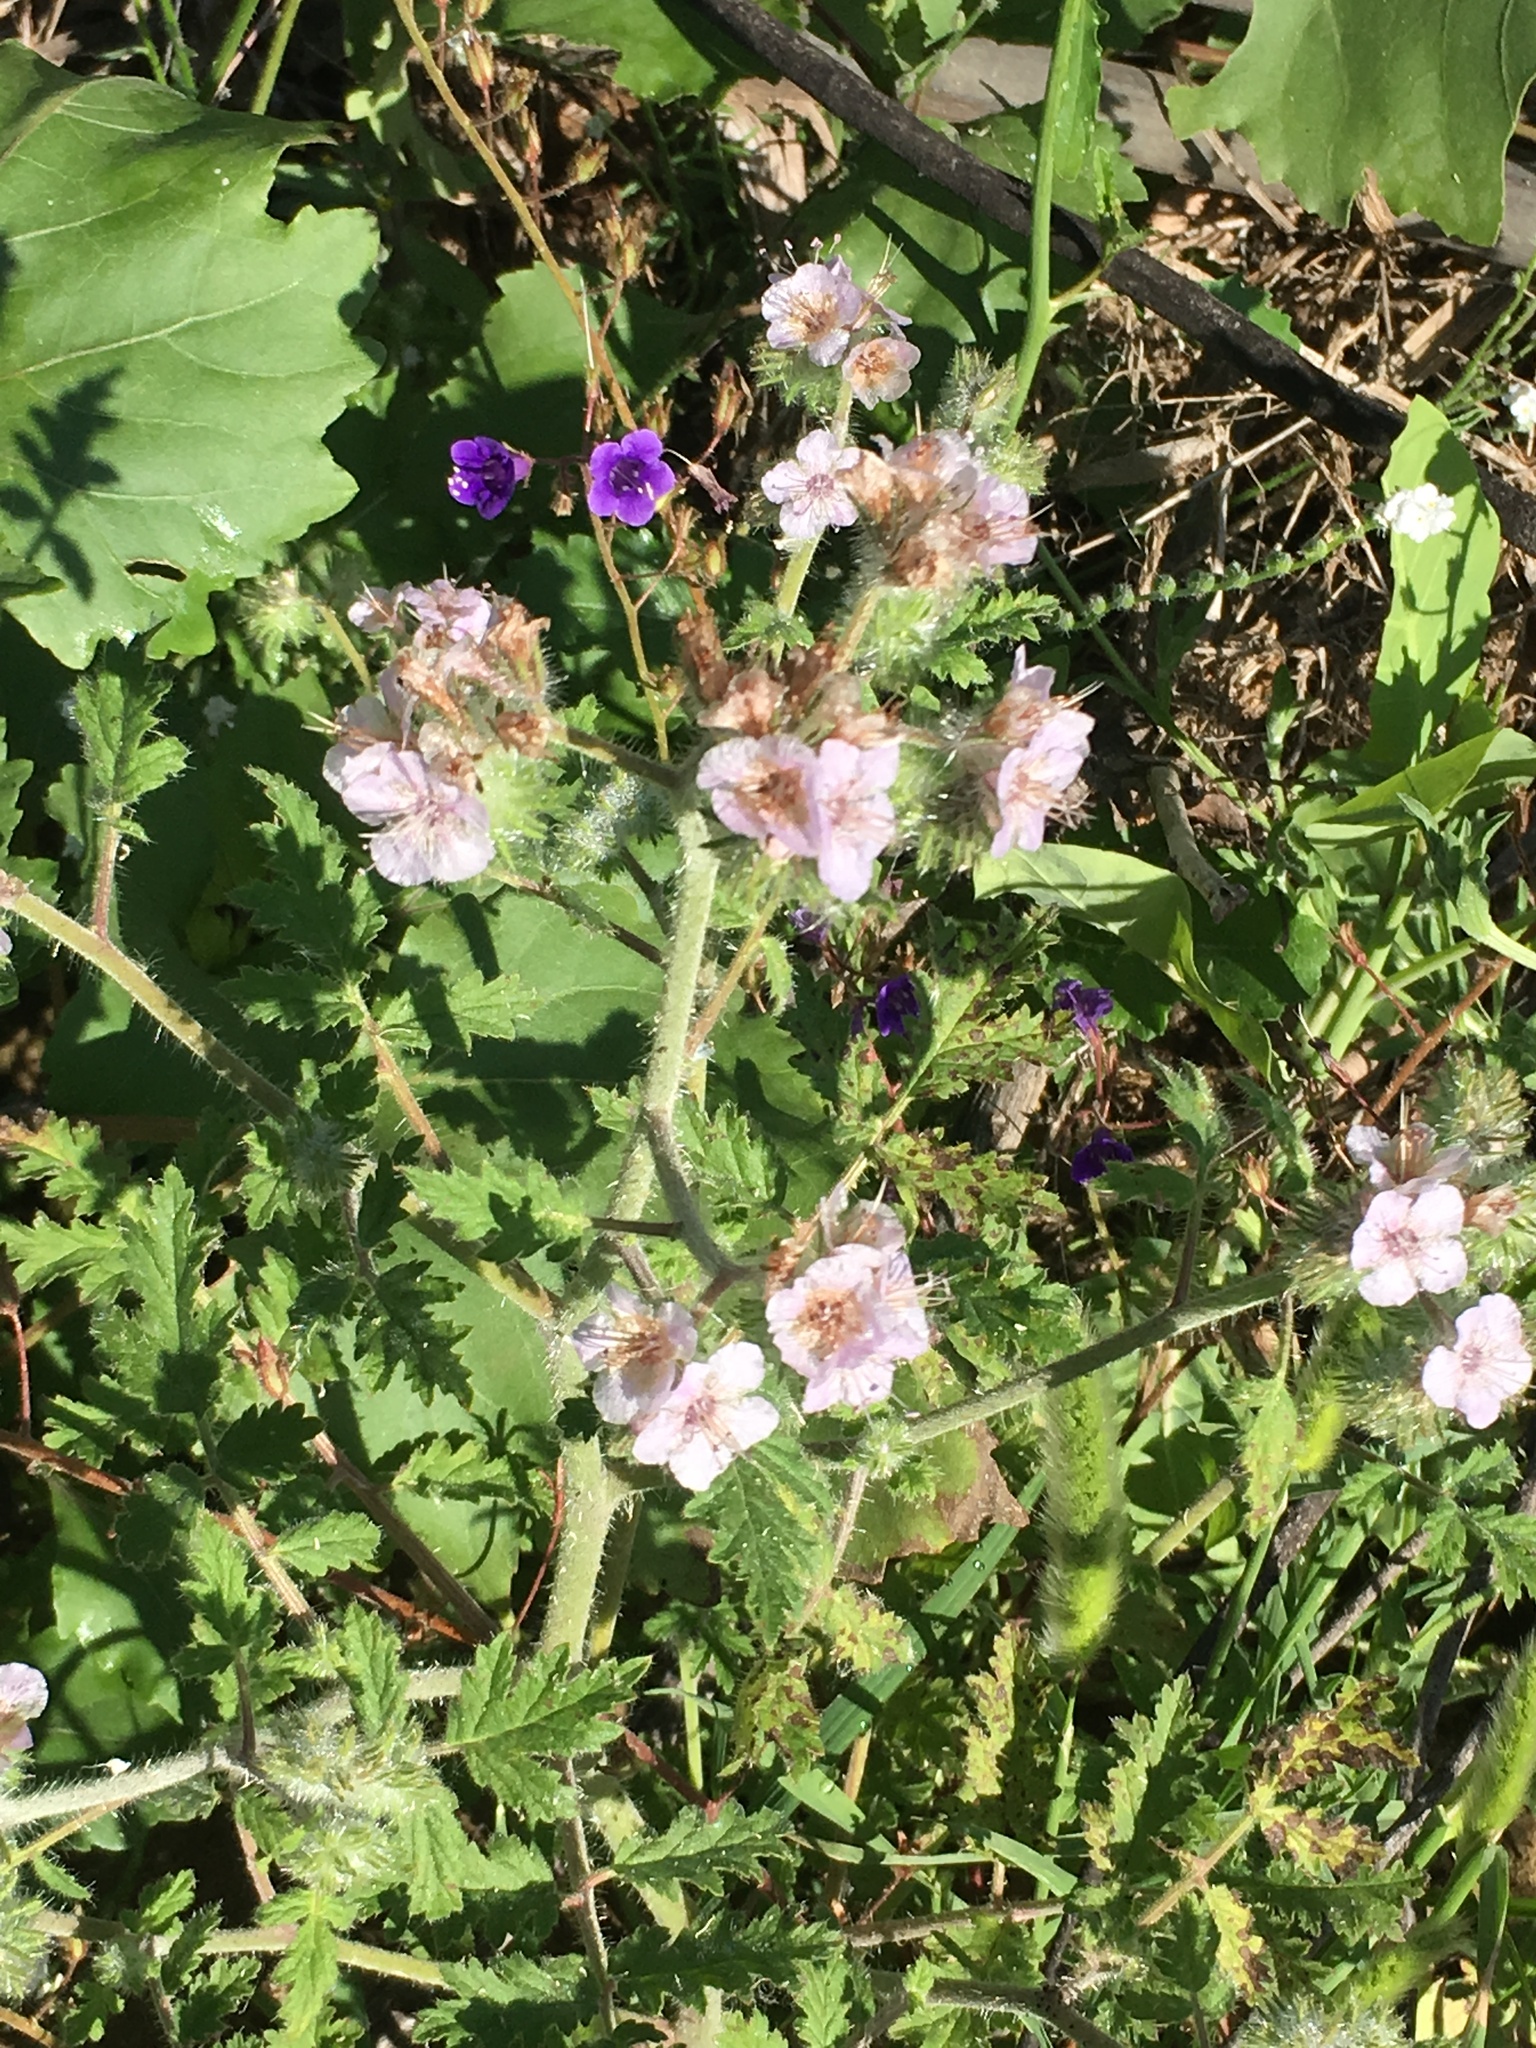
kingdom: Plantae
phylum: Tracheophyta
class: Magnoliopsida
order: Boraginales
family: Hydrophyllaceae
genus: Phacelia
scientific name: Phacelia cicutaria
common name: Caterpillar phacelia
